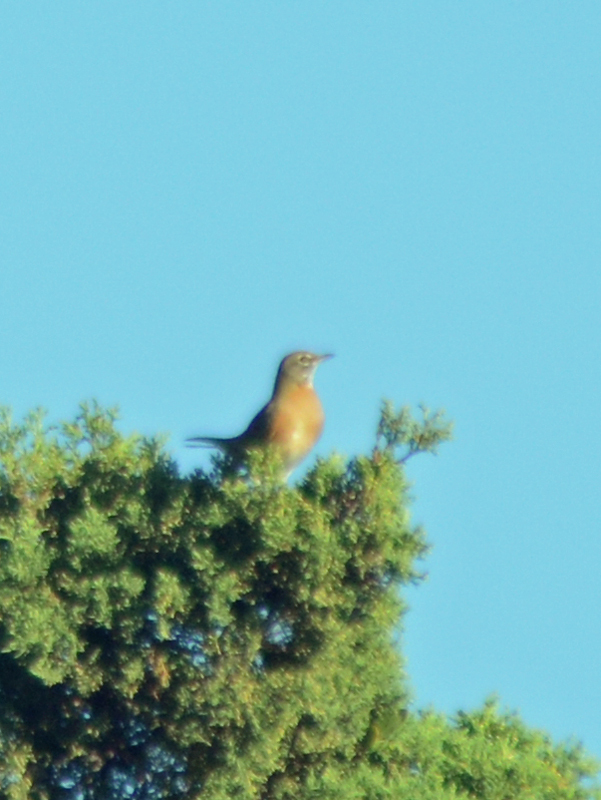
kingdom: Animalia
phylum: Chordata
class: Aves
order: Passeriformes
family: Turdidae
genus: Turdus
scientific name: Turdus migratorius
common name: American robin
